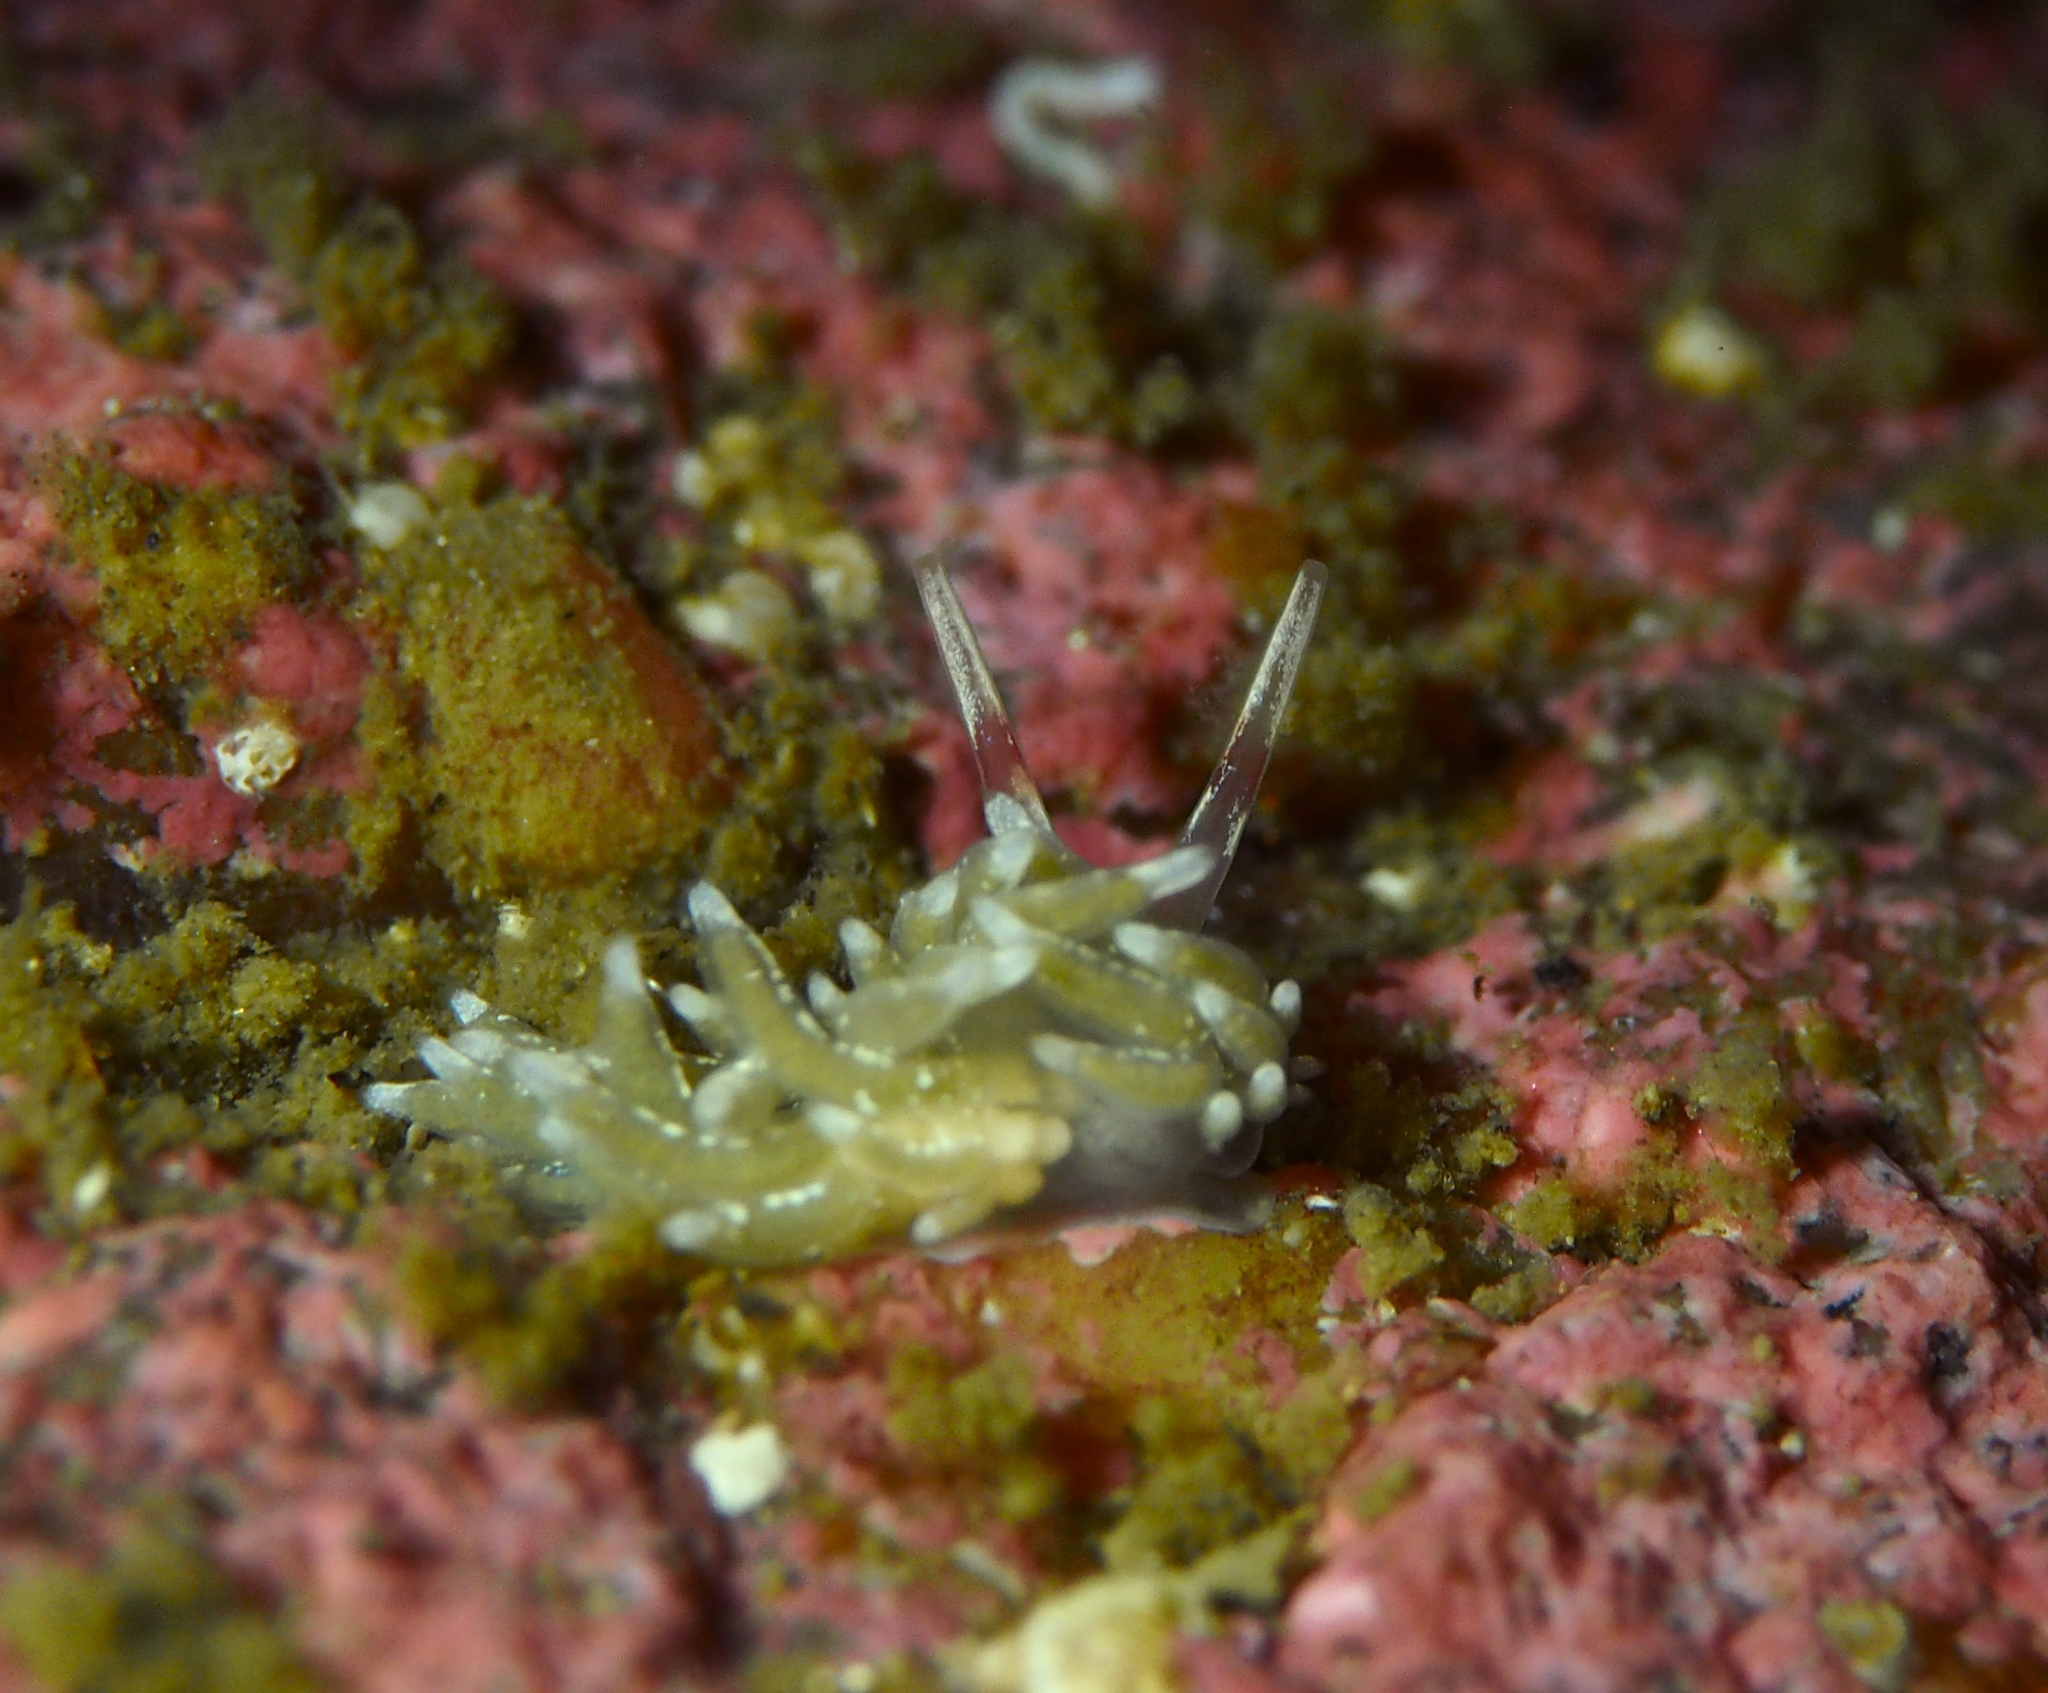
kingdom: Animalia
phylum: Mollusca
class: Gastropoda
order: Nudibranchia
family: Trinchesiidae
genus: Rubramoena
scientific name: Rubramoena rubescens
